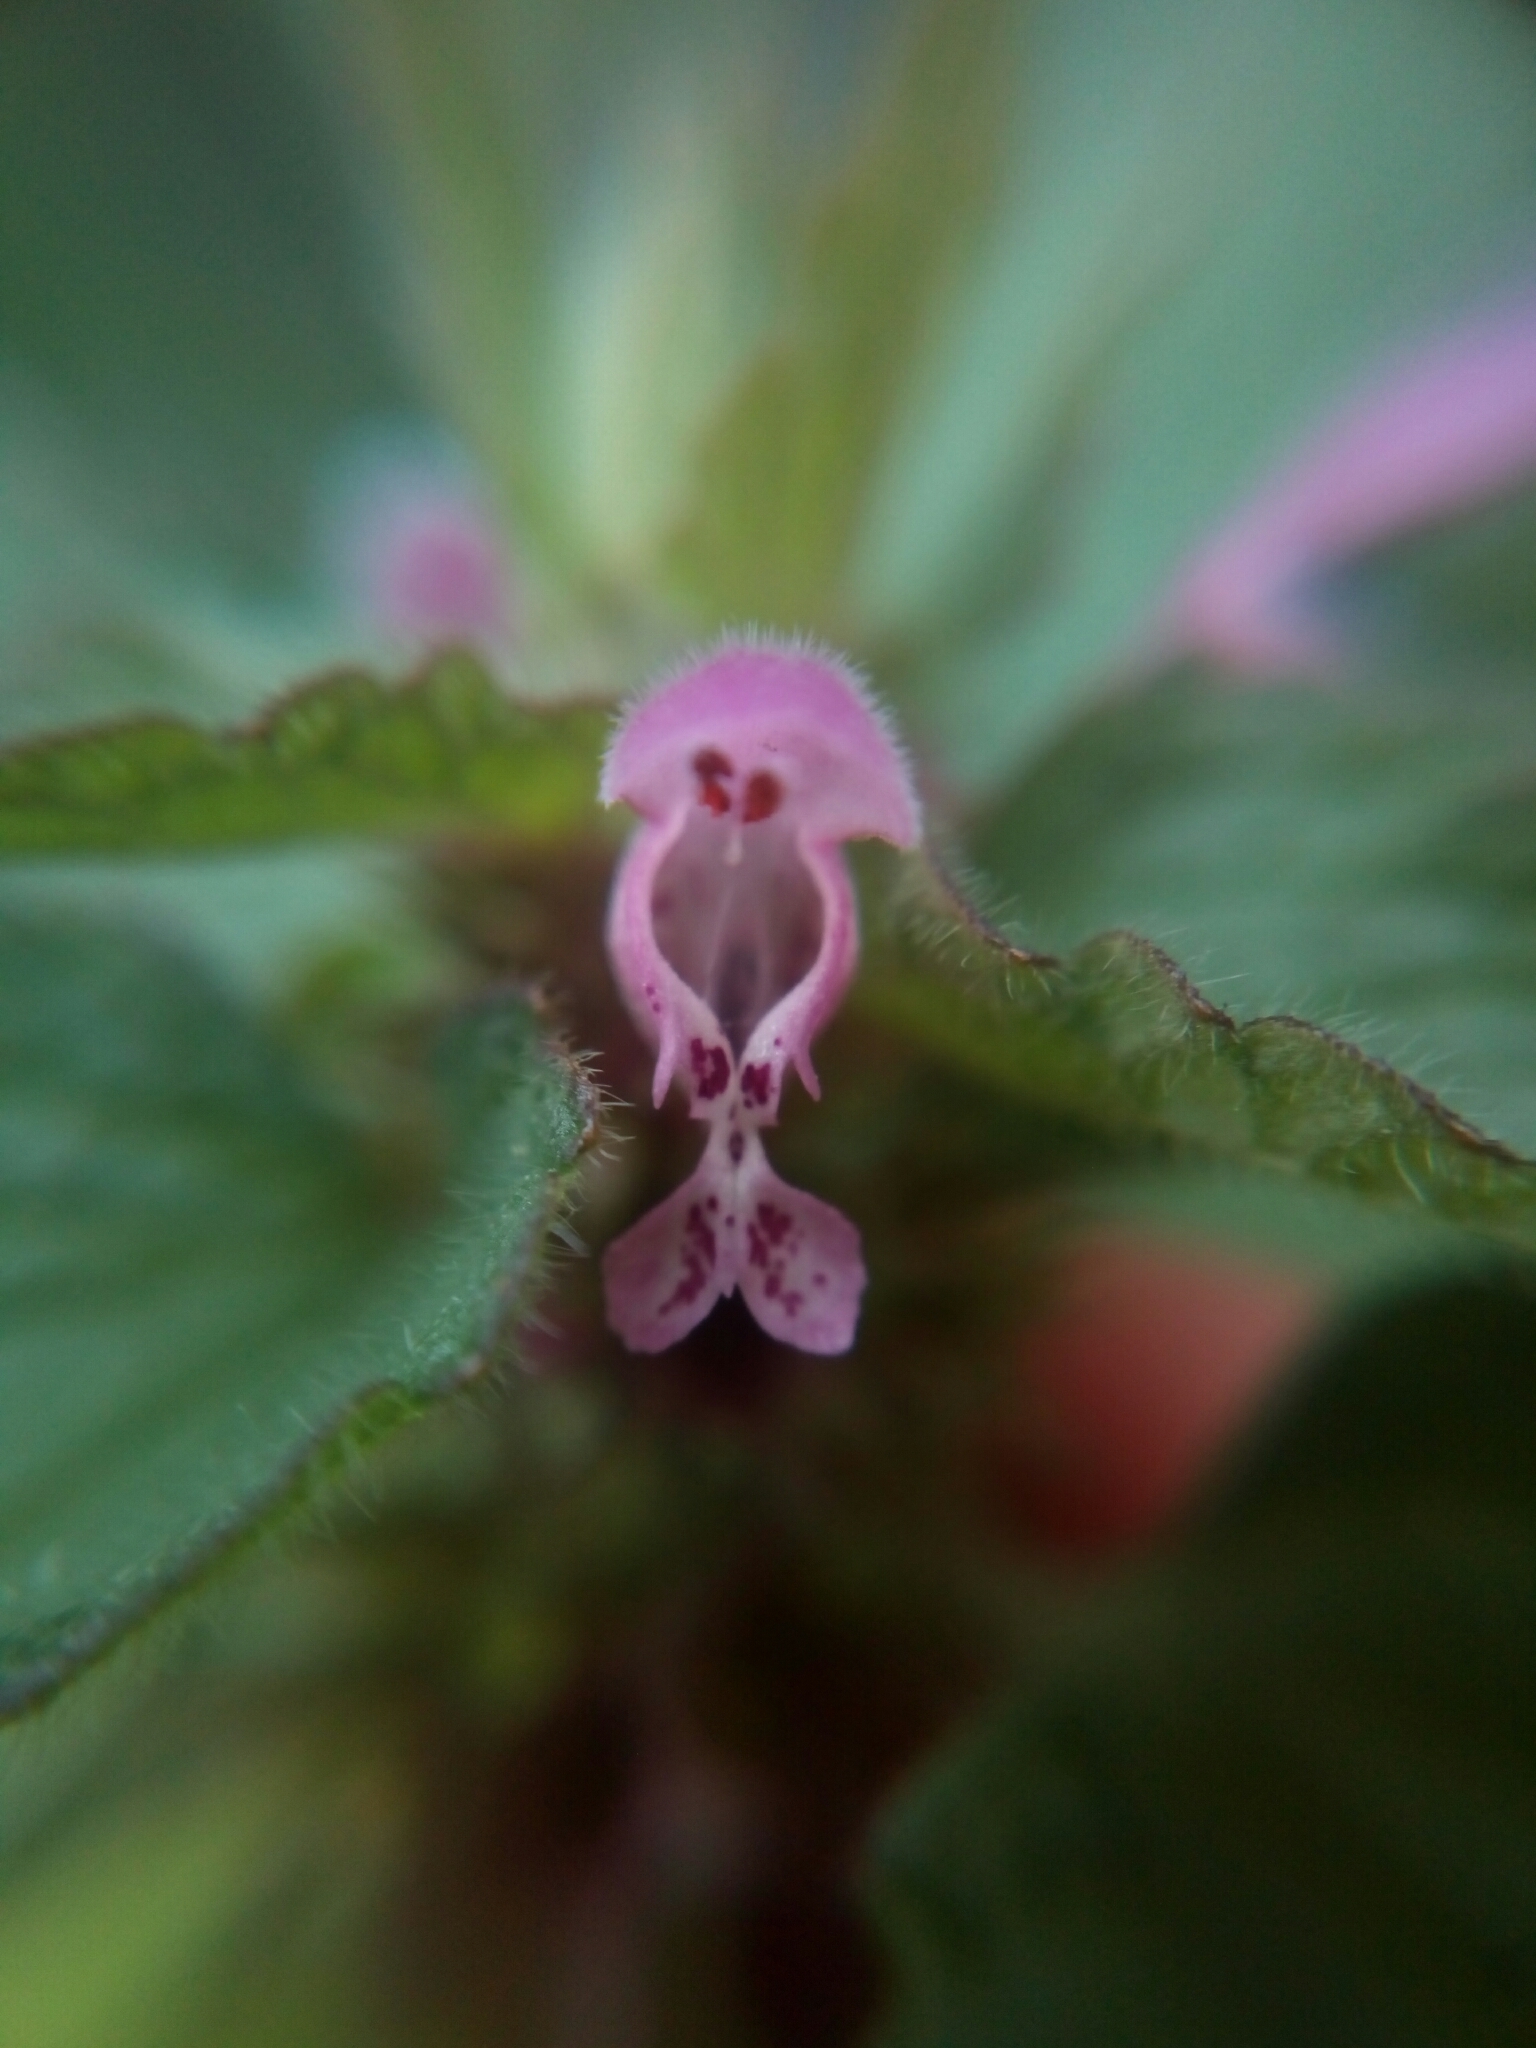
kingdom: Plantae
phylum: Tracheophyta
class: Magnoliopsida
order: Lamiales
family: Lamiaceae
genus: Lamium
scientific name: Lamium purpureum
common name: Red dead-nettle
